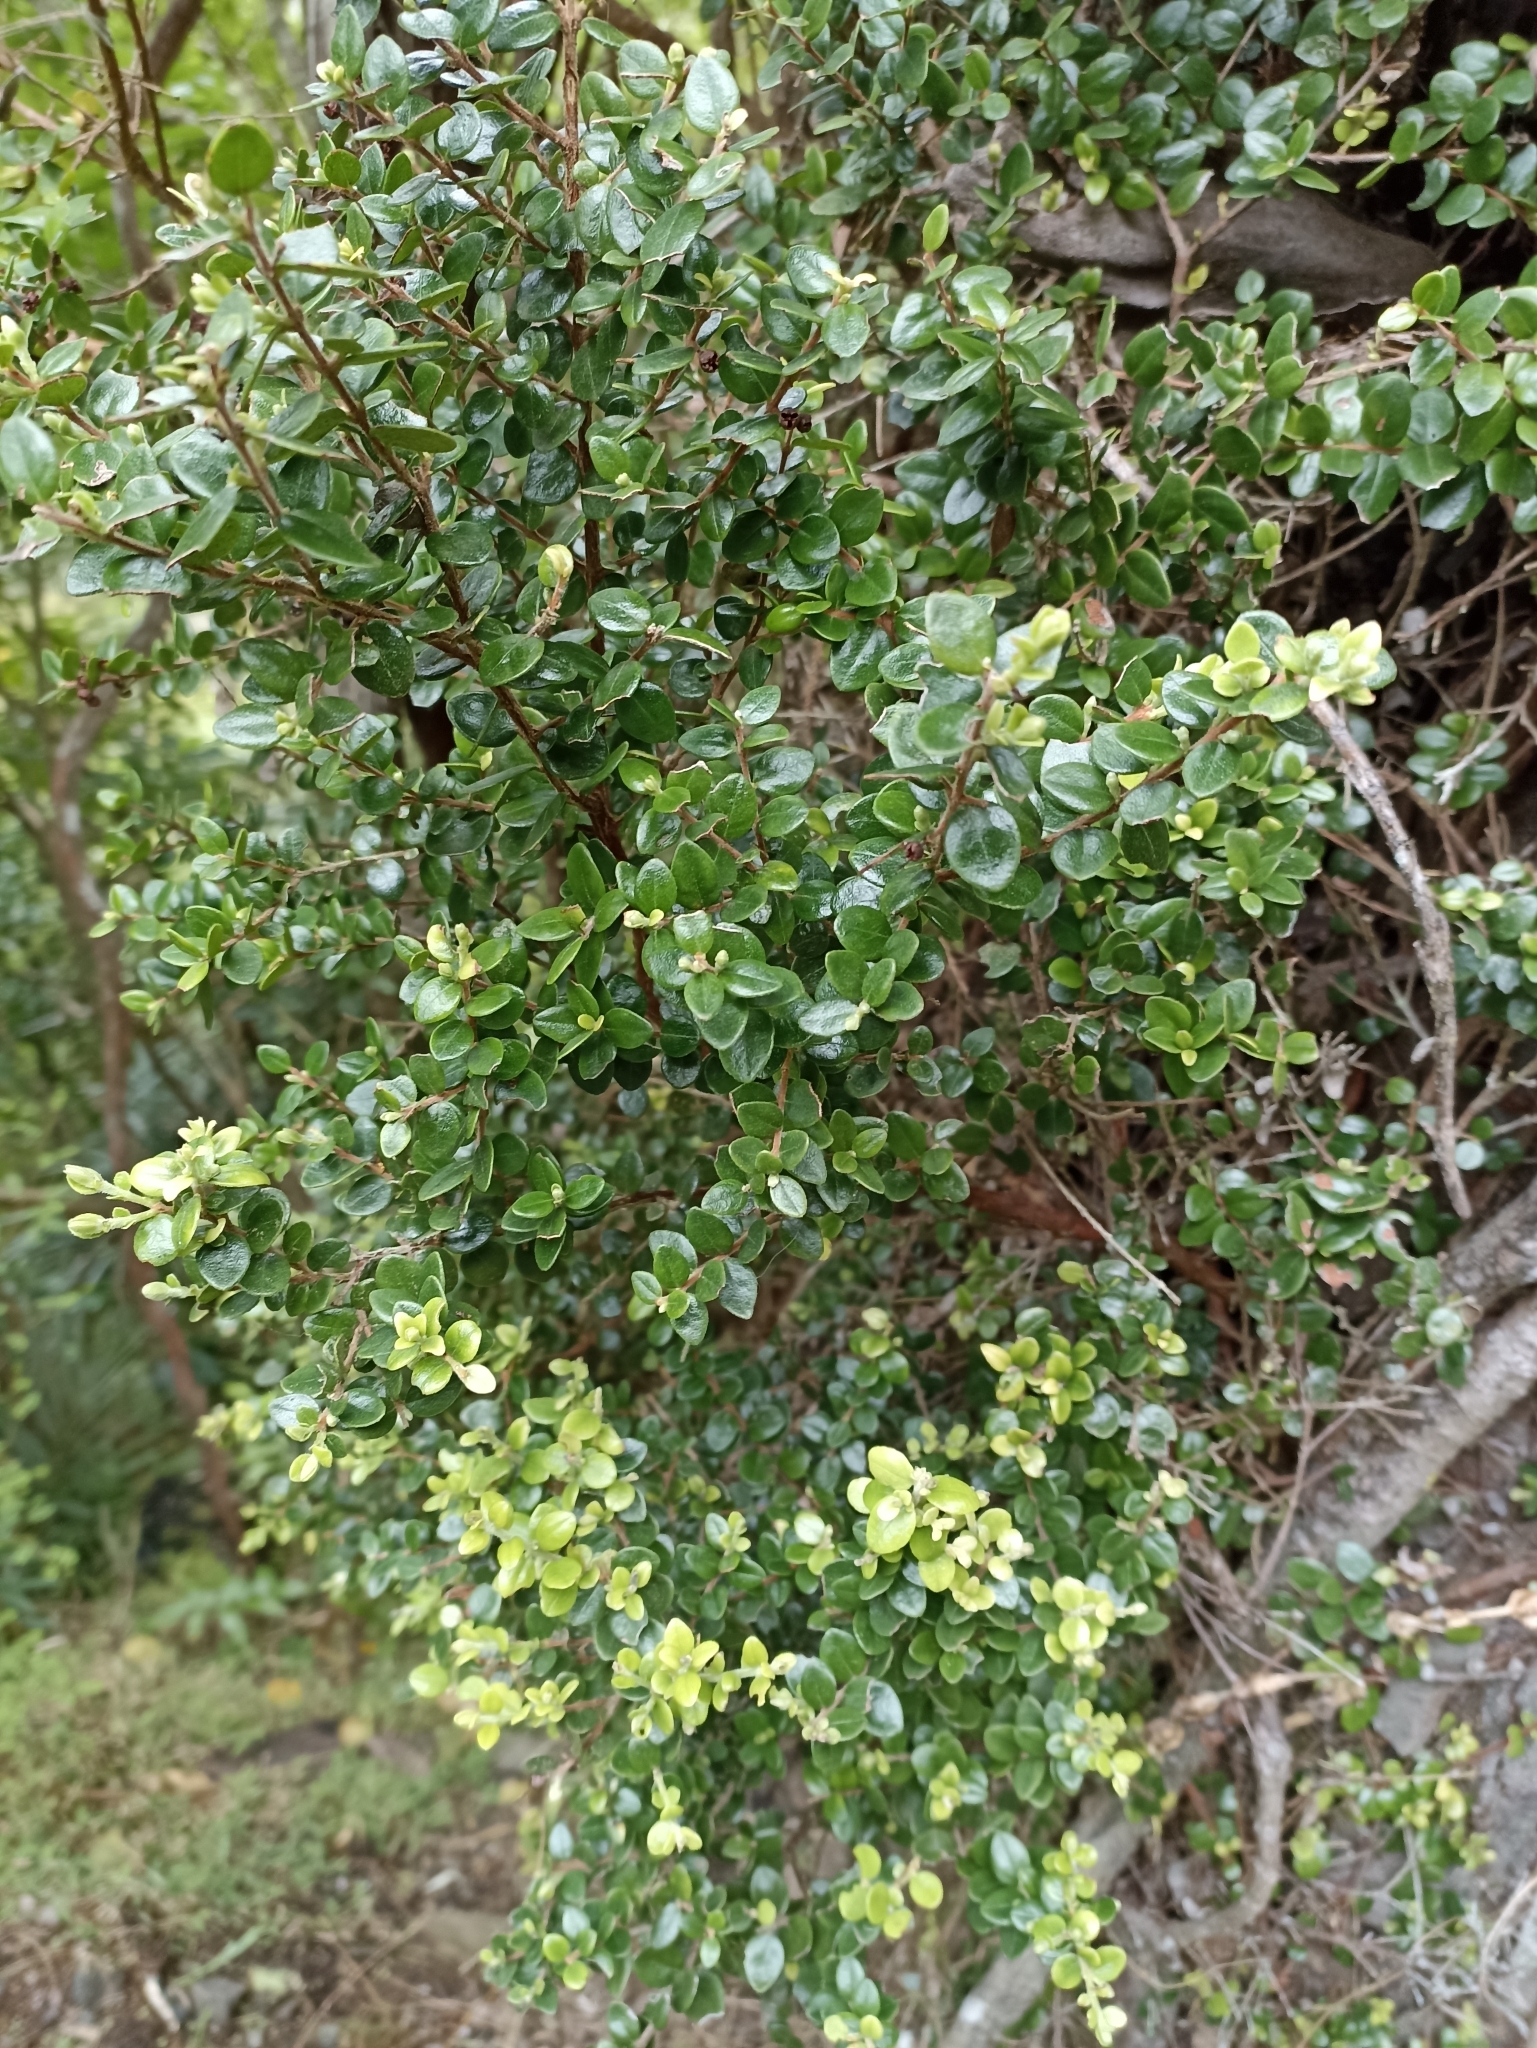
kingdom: Plantae
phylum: Tracheophyta
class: Magnoliopsida
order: Myrtales
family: Myrtaceae
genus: Metrosideros
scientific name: Metrosideros perforata
